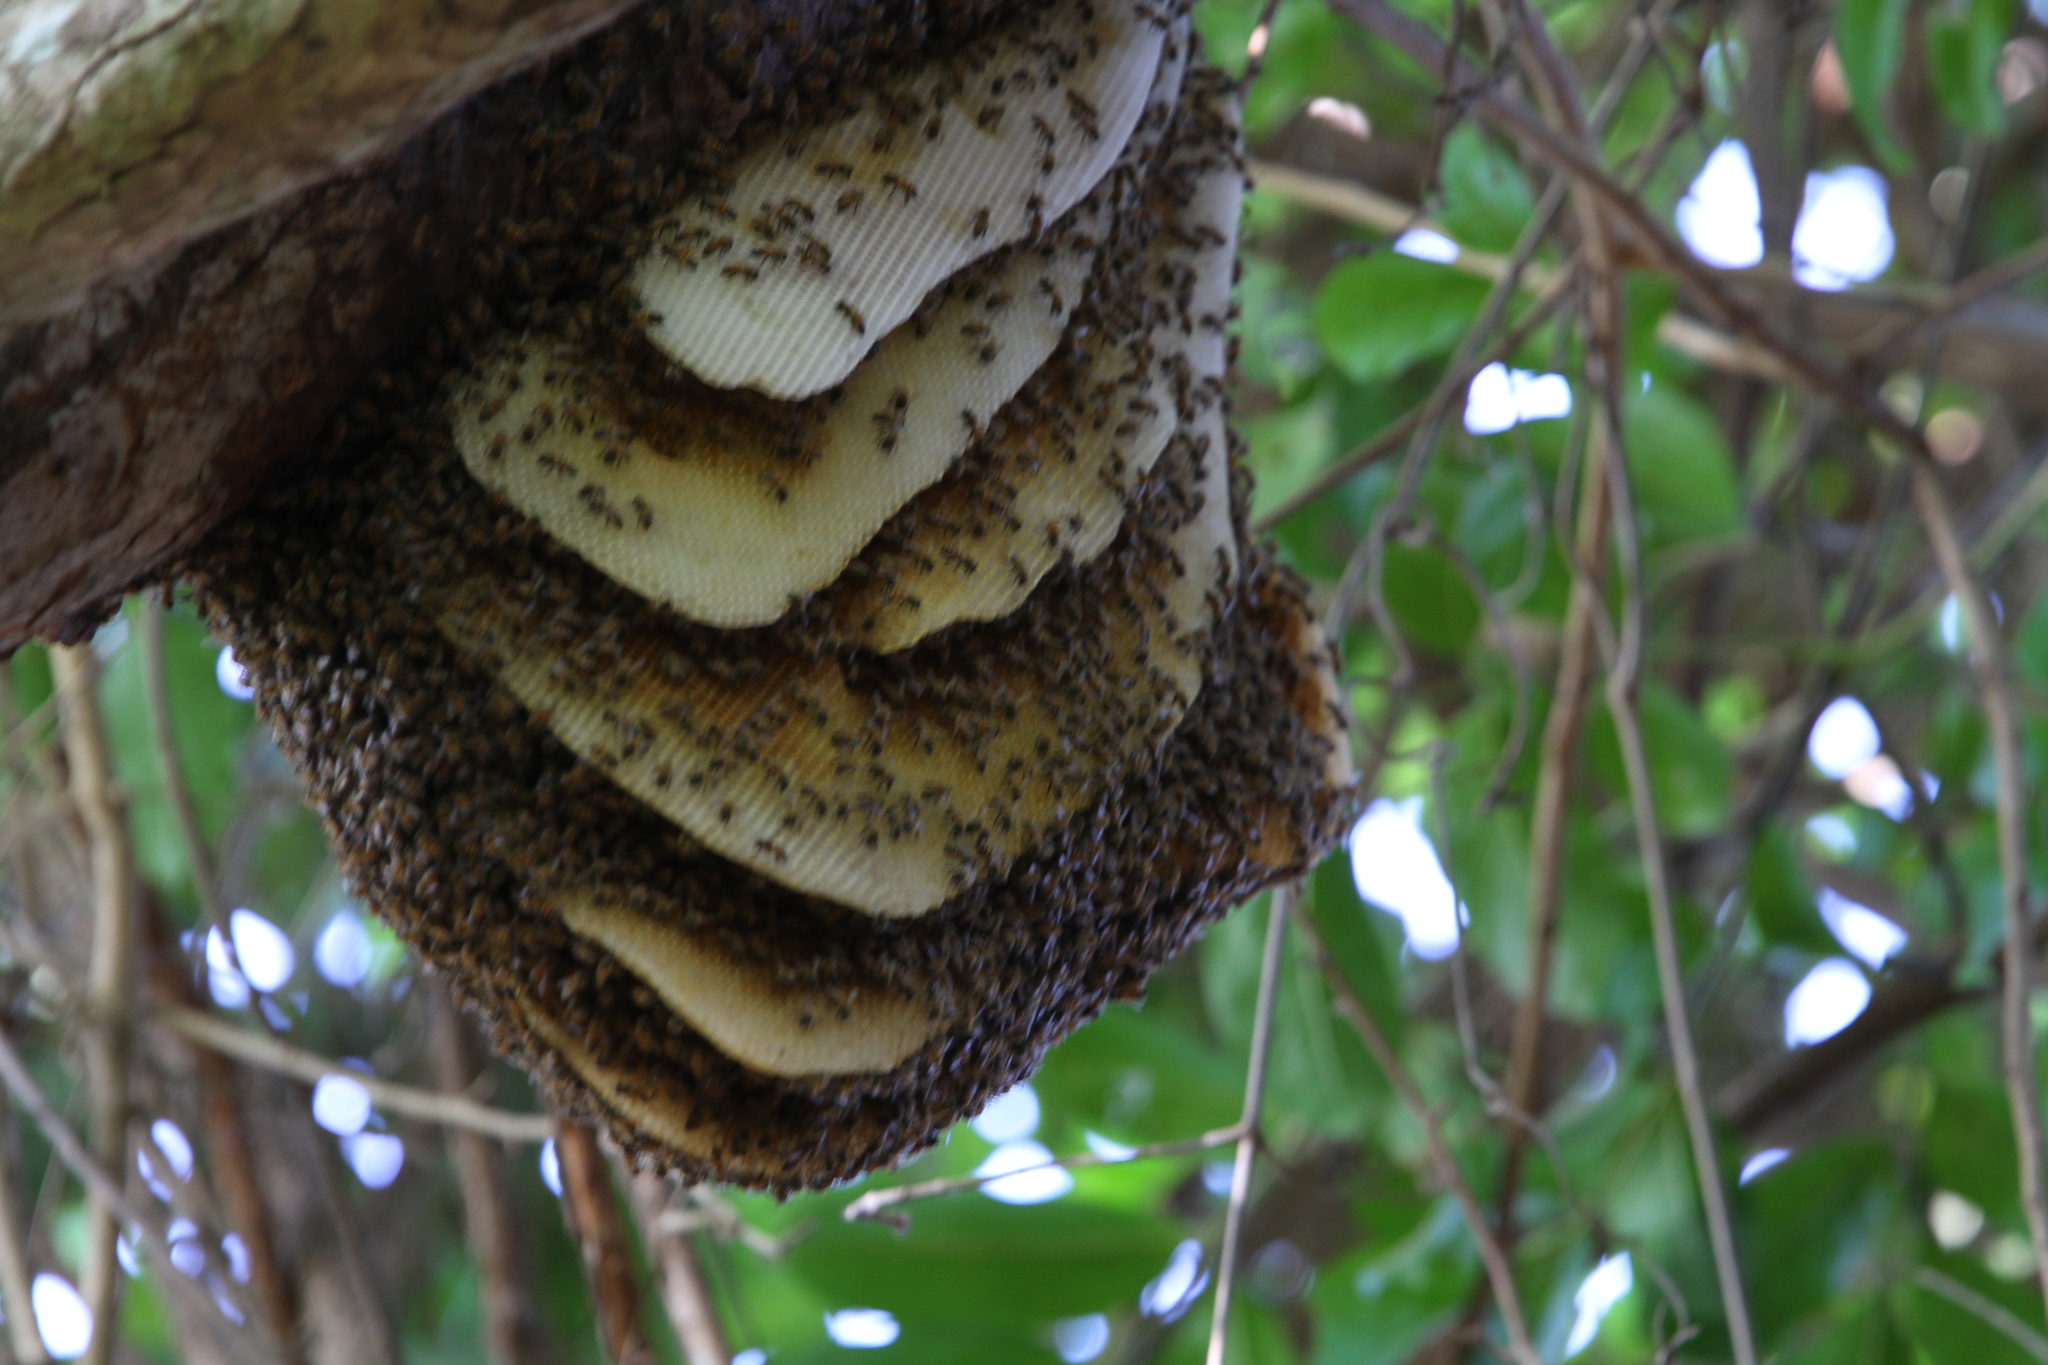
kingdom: Animalia
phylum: Arthropoda
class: Insecta
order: Hymenoptera
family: Apidae
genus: Apis
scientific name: Apis mellifera
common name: Honey bee
